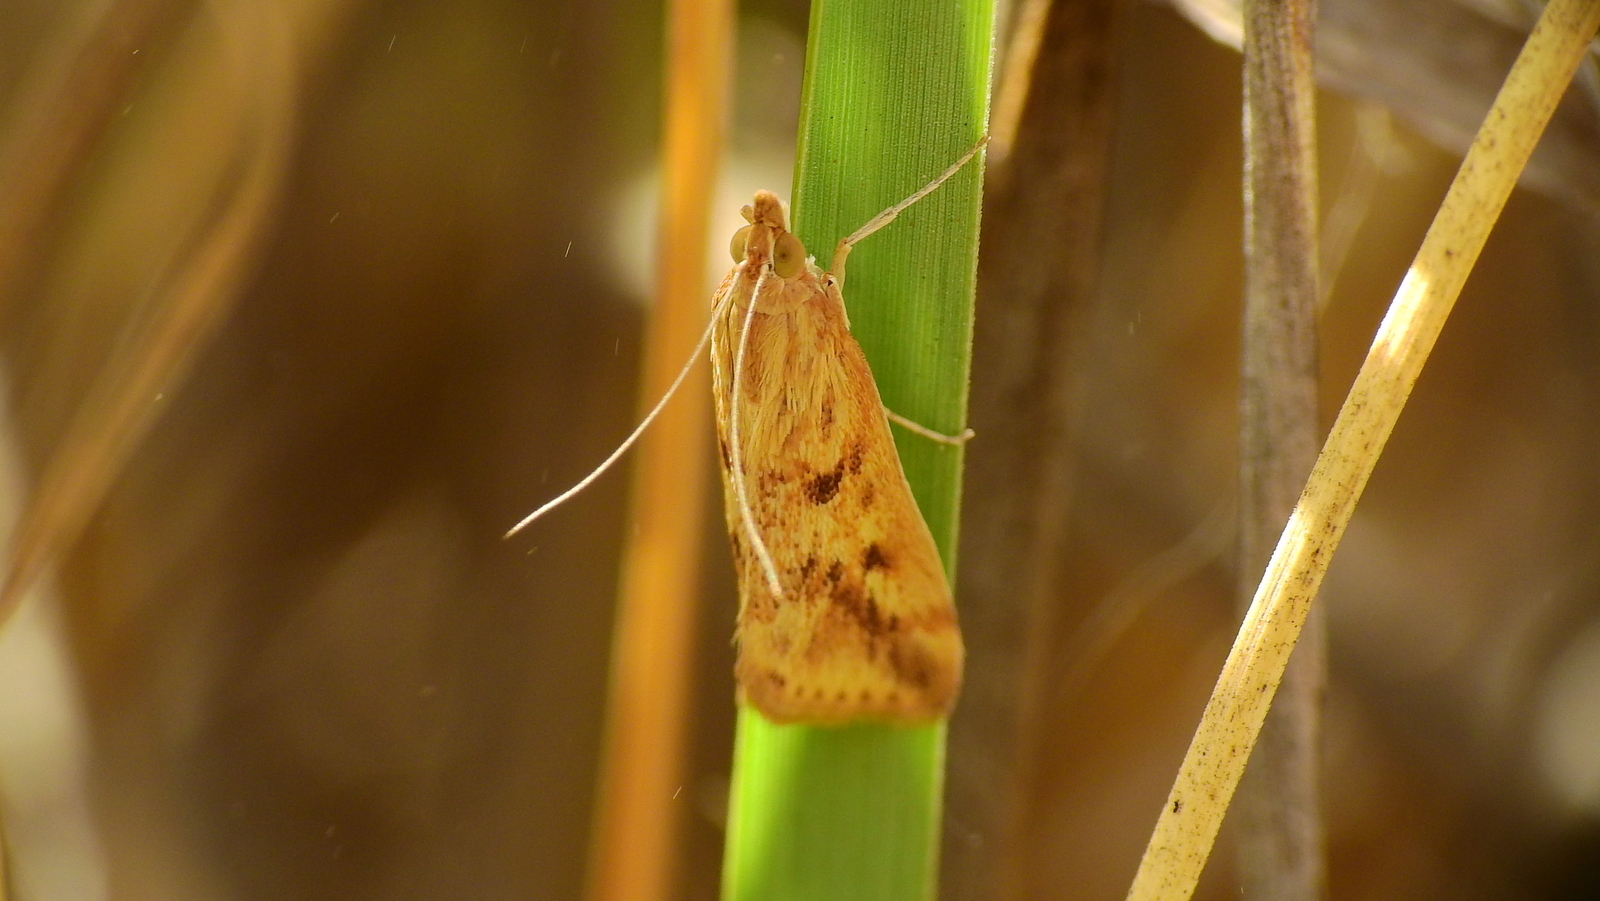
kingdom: Animalia
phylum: Arthropoda
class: Insecta
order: Lepidoptera
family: Crambidae
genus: Achyra
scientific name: Achyra bifidalis
